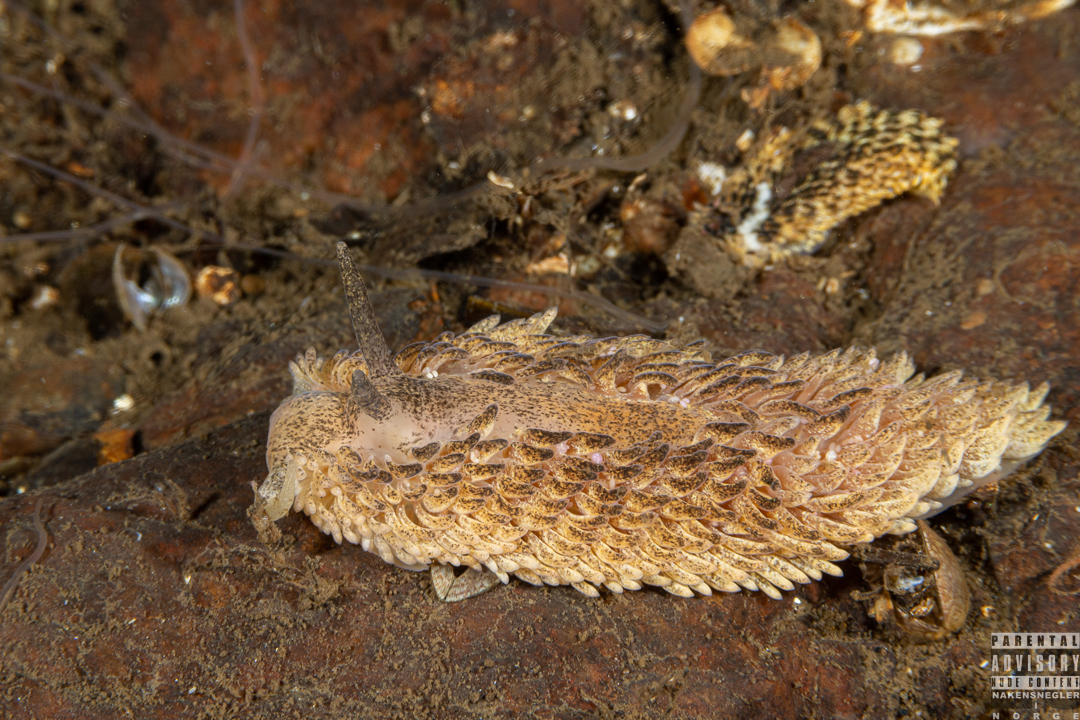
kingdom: Animalia
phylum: Mollusca
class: Gastropoda
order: Nudibranchia
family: Aeolidiidae
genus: Aeolidia
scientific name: Aeolidia papillosa
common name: Common grey sea slug
